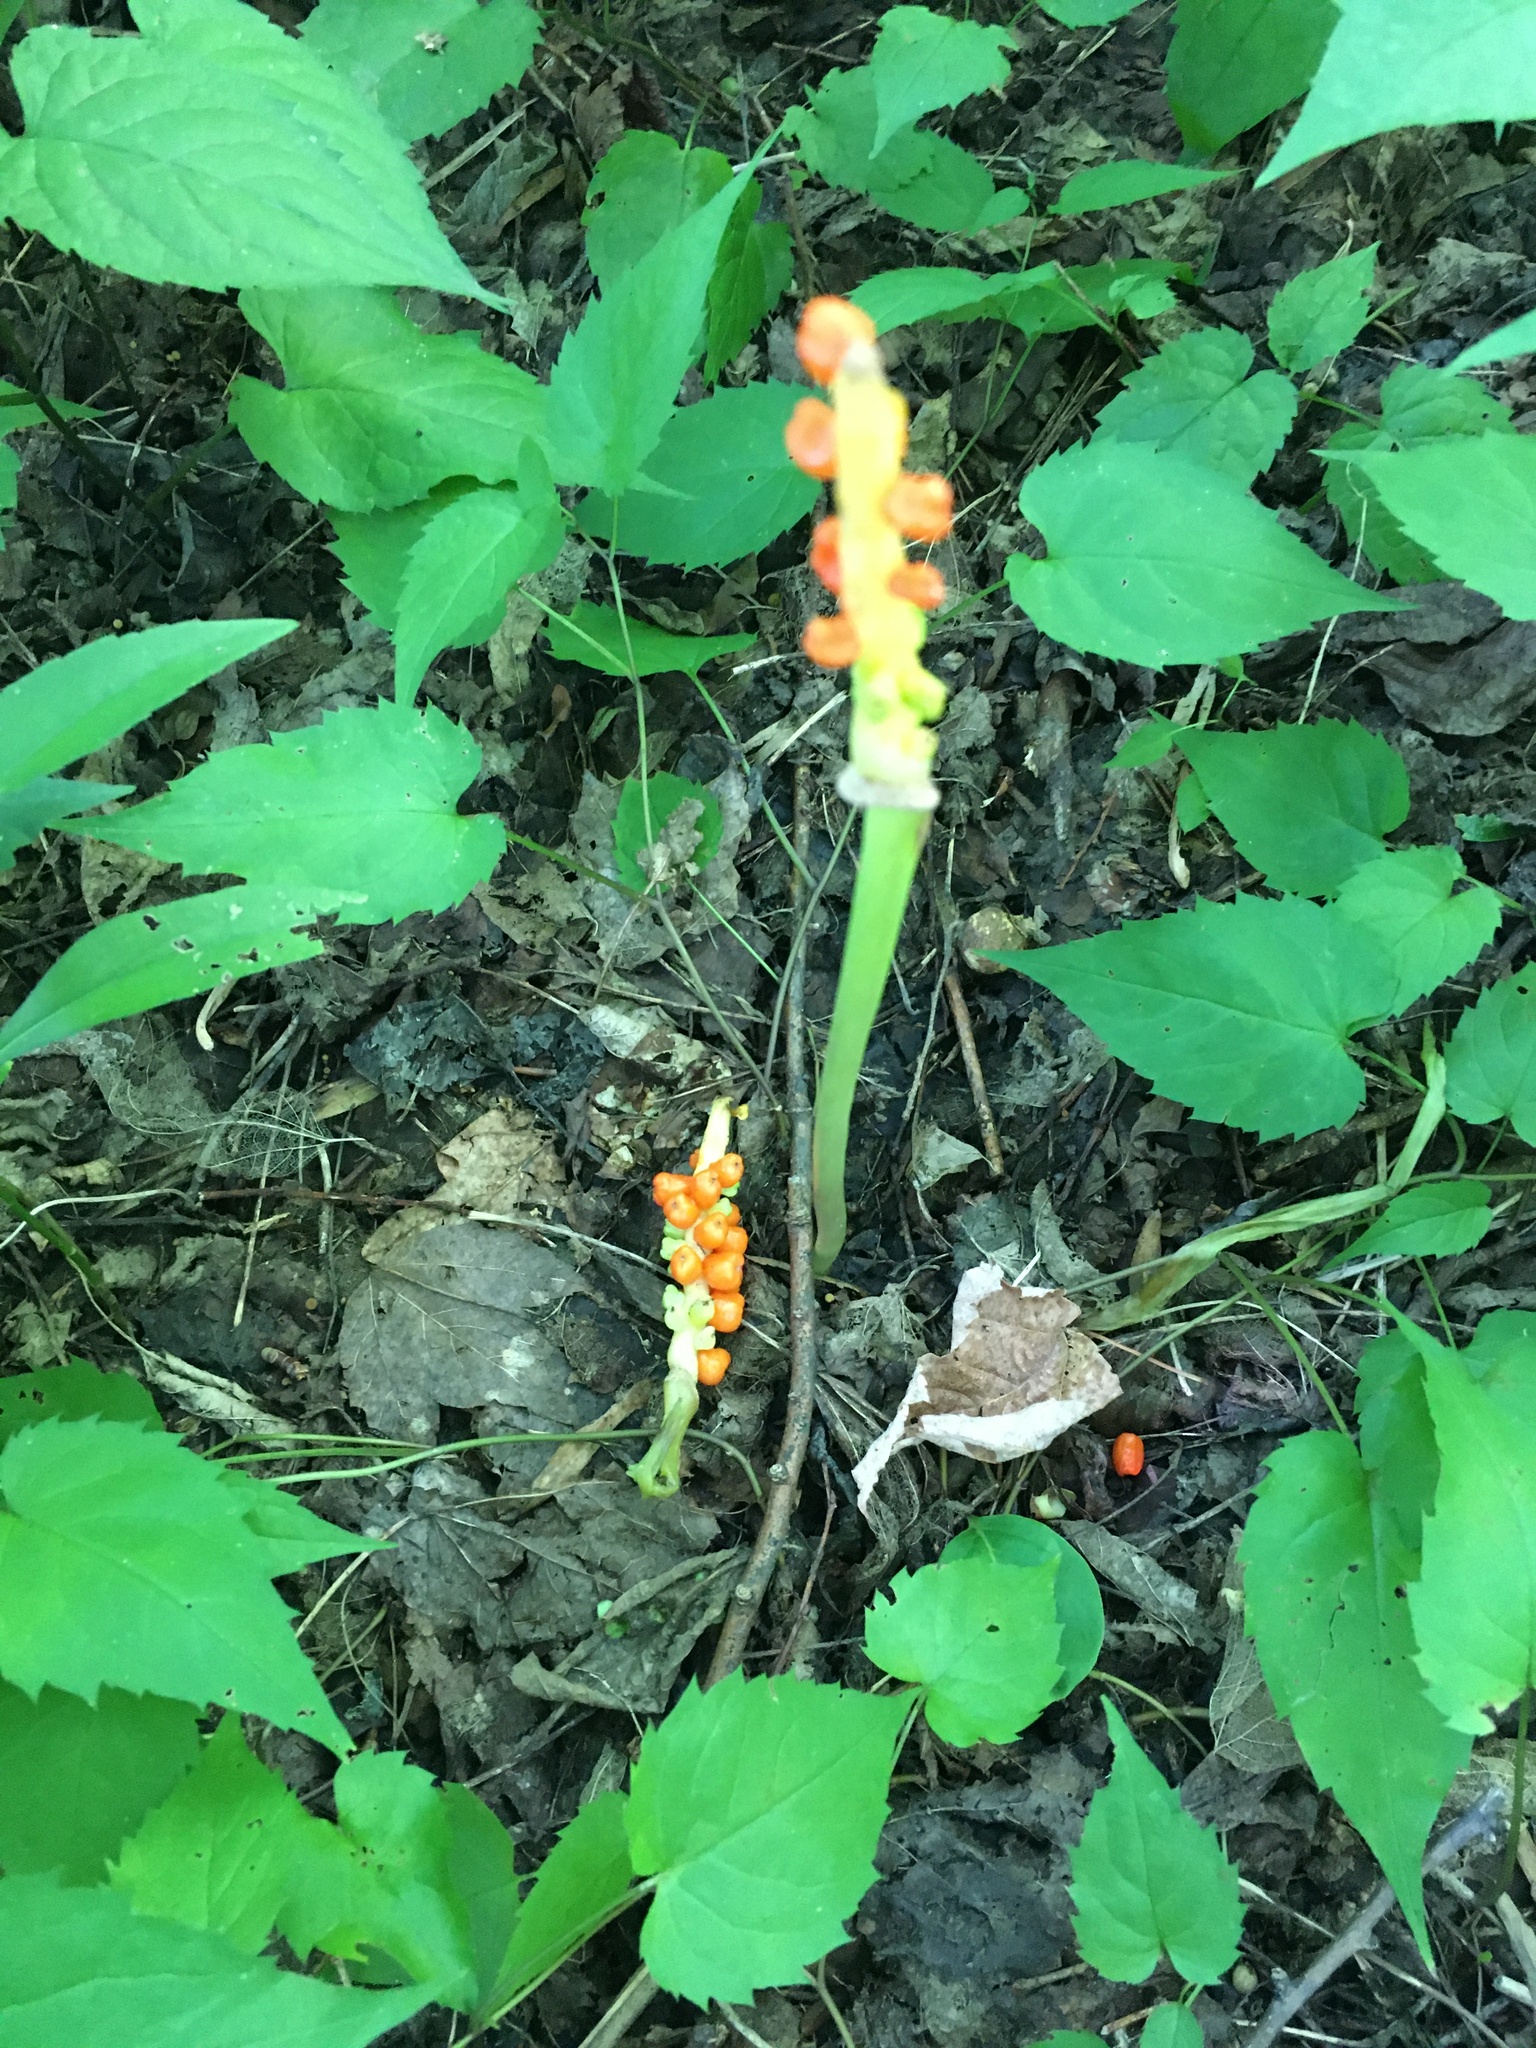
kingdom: Plantae
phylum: Tracheophyta
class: Liliopsida
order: Alismatales
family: Araceae
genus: Arum
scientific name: Arum italicum
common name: Italian lords-and-ladies
